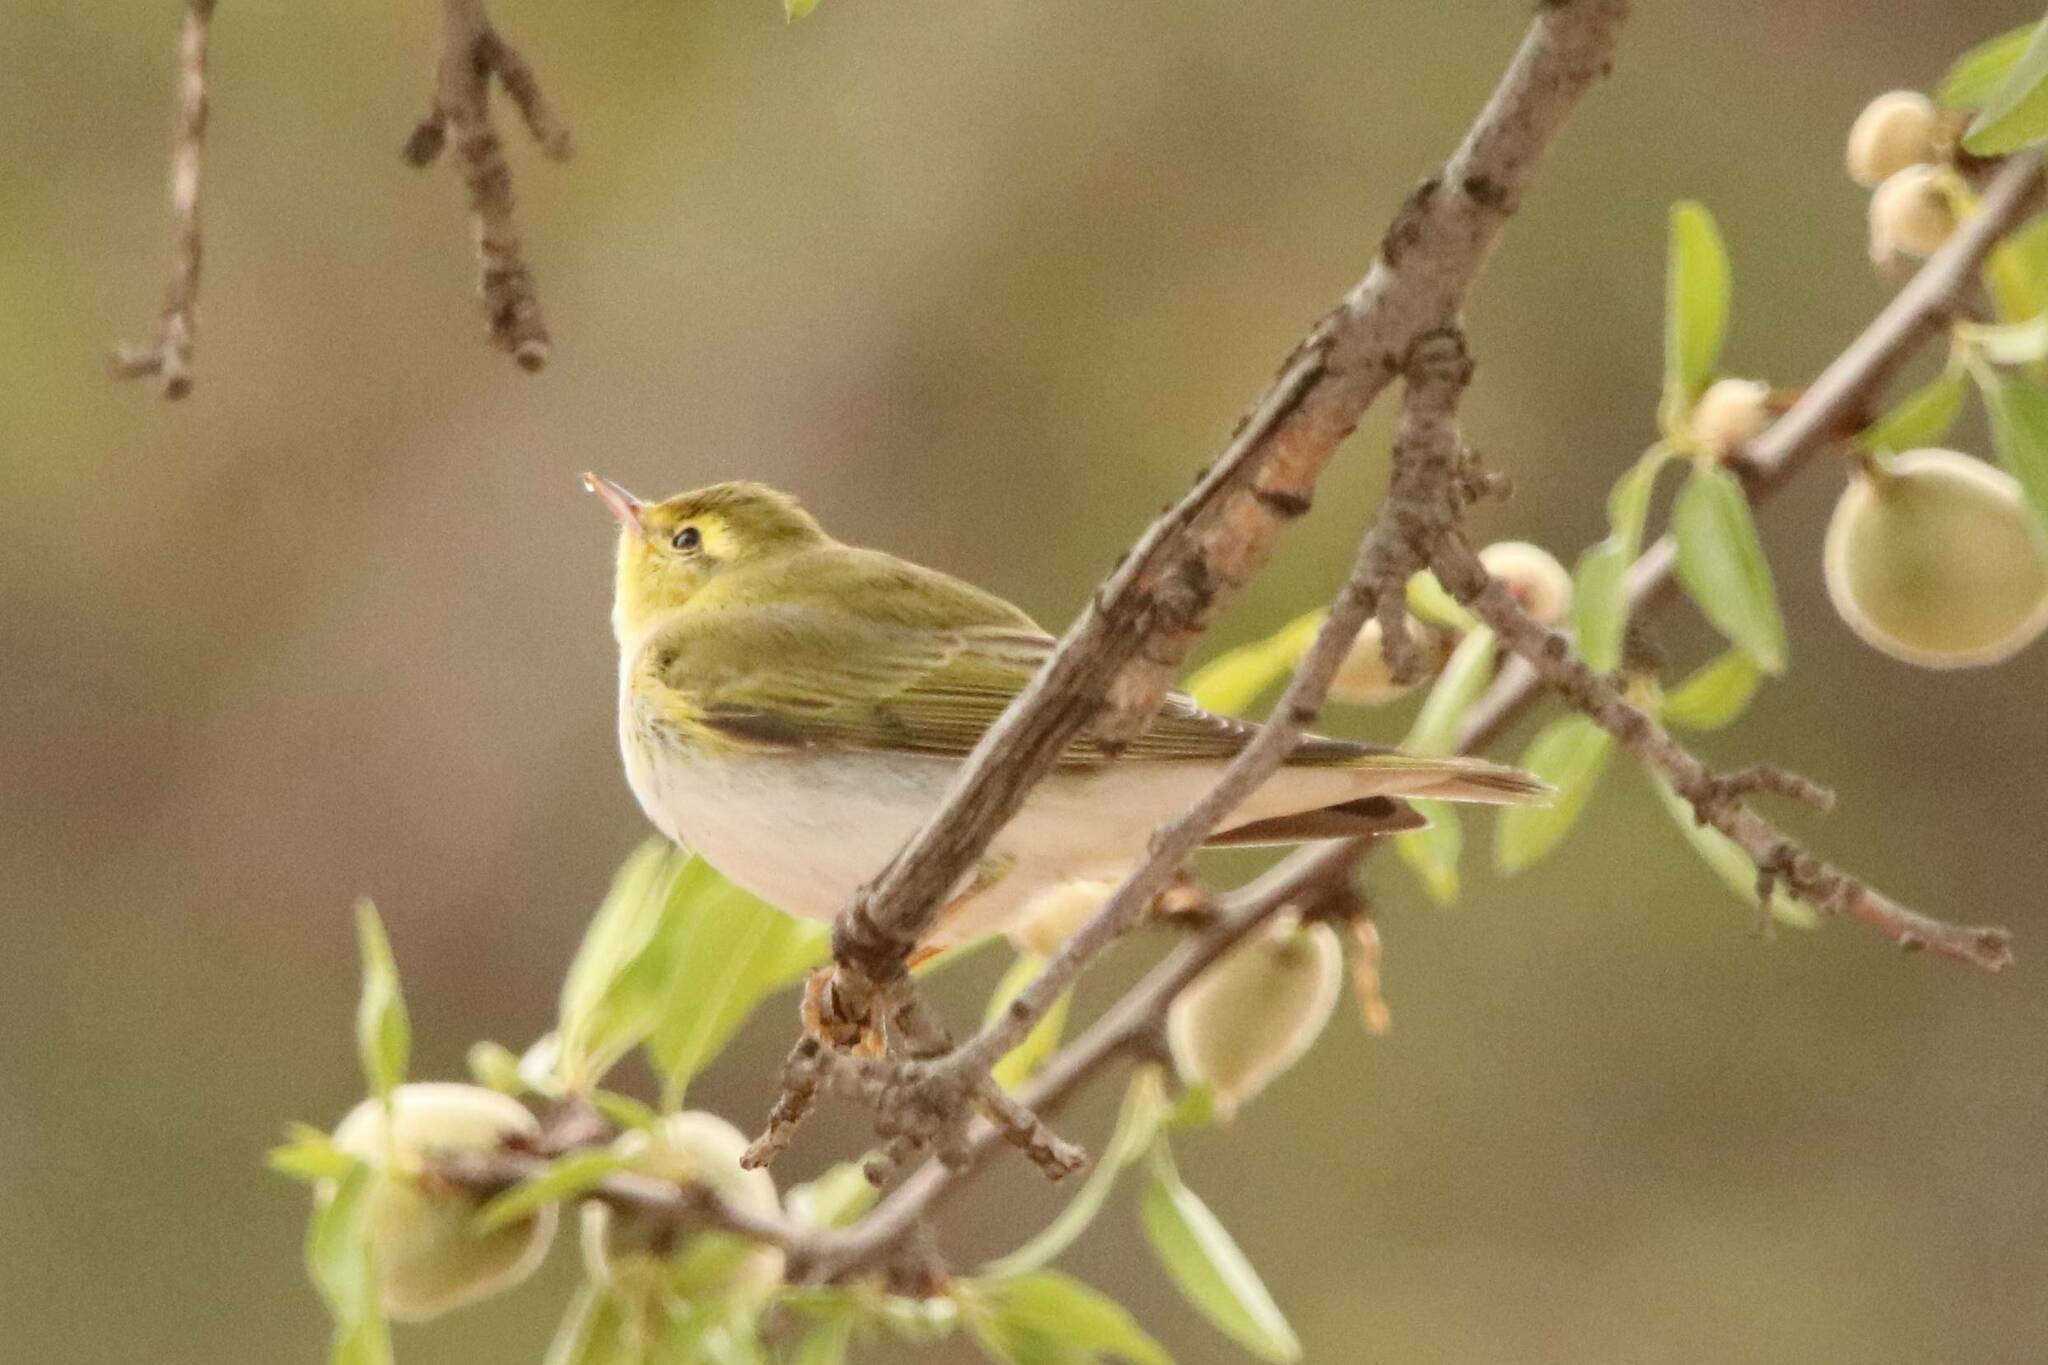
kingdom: Animalia
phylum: Chordata
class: Aves
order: Passeriformes
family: Phylloscopidae
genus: Phylloscopus
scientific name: Phylloscopus sibillatrix
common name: Wood warbler
